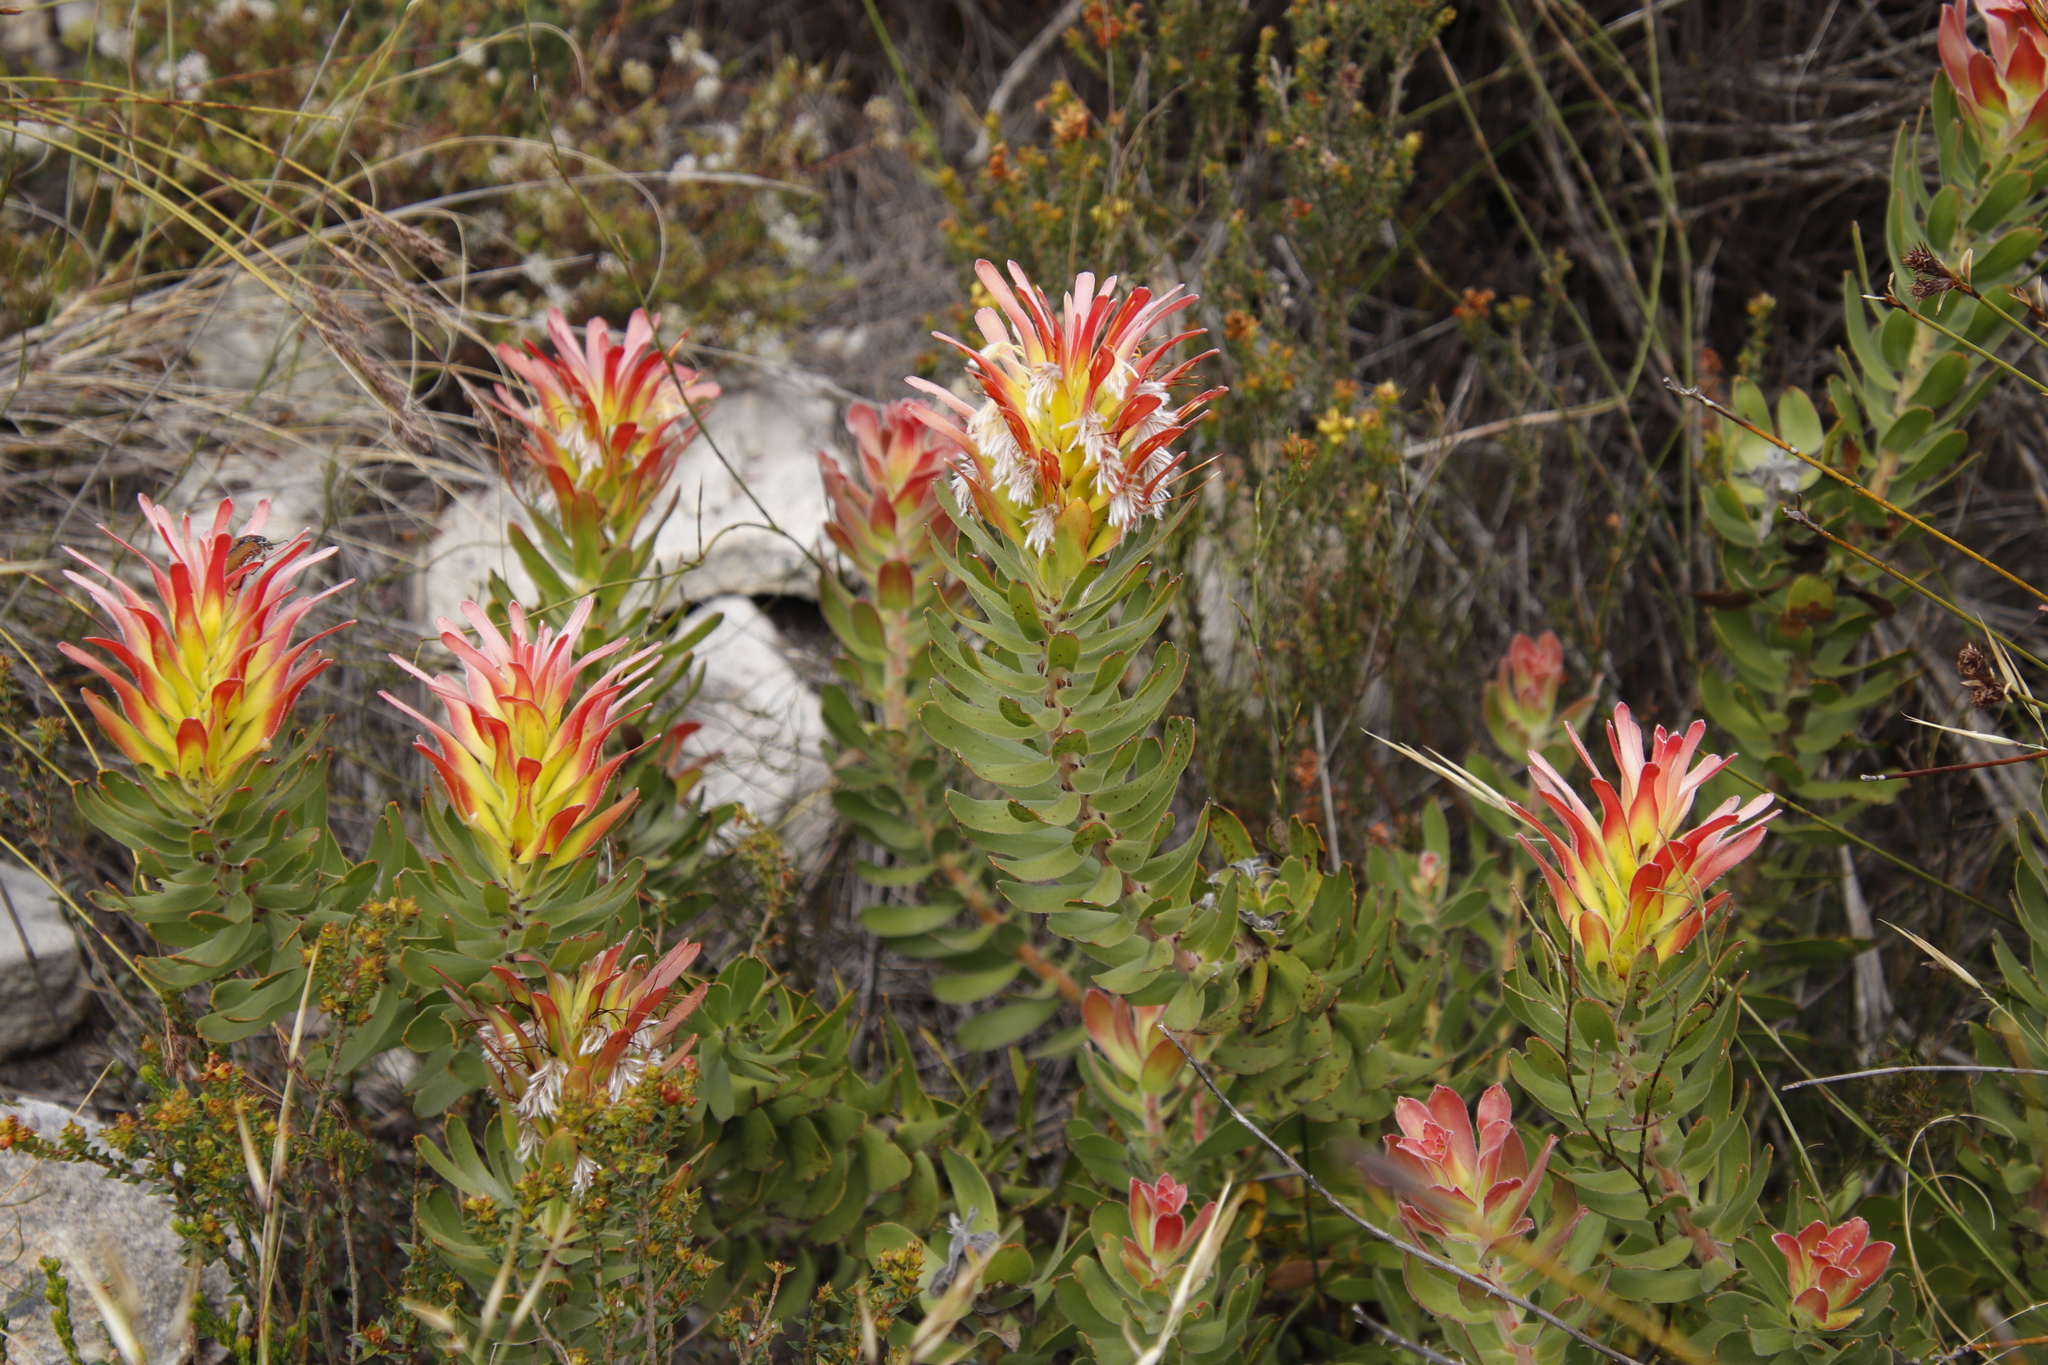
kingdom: Plantae
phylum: Tracheophyta
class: Magnoliopsida
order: Proteales
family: Proteaceae
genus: Mimetes
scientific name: Mimetes cucullatus
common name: Common pagoda
